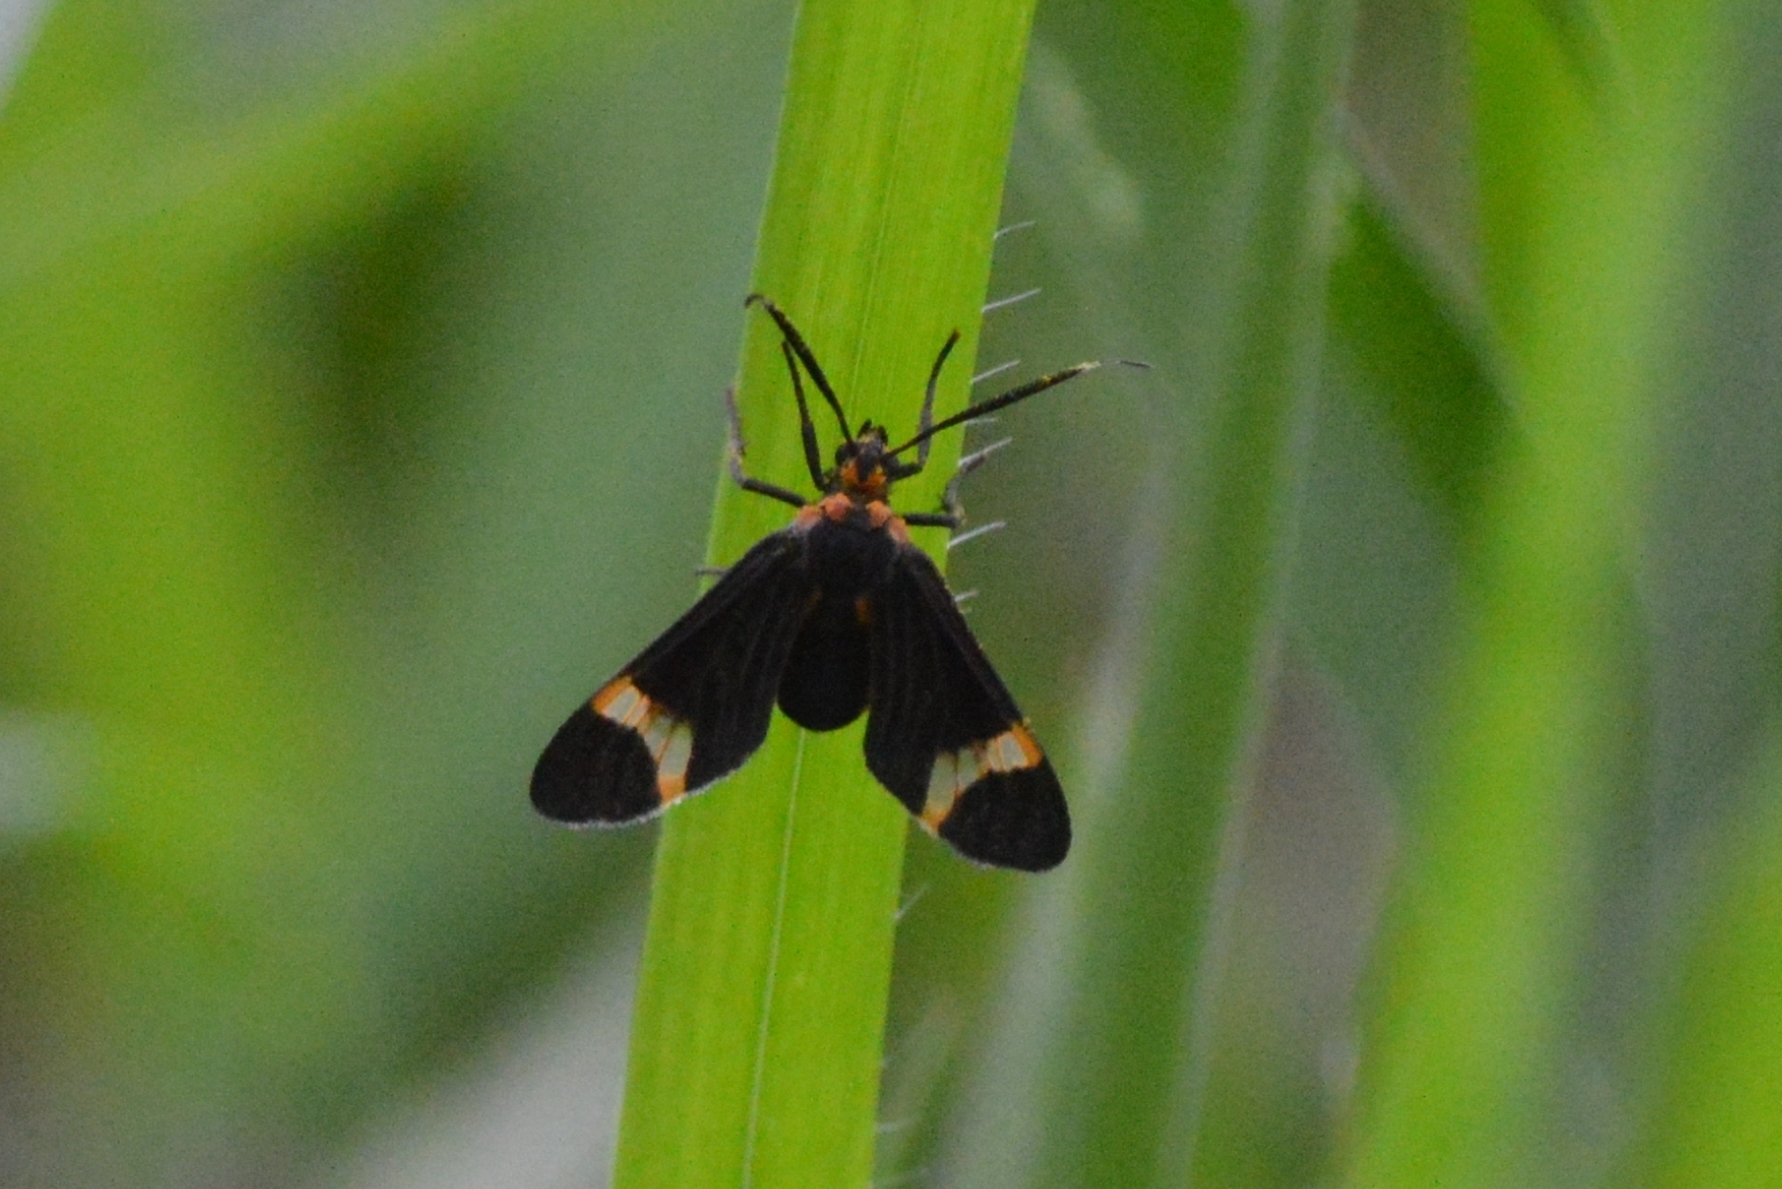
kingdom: Animalia
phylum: Arthropoda
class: Insecta
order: Lepidoptera
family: Erebidae
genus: Dycladia
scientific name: Dycladia lydia
